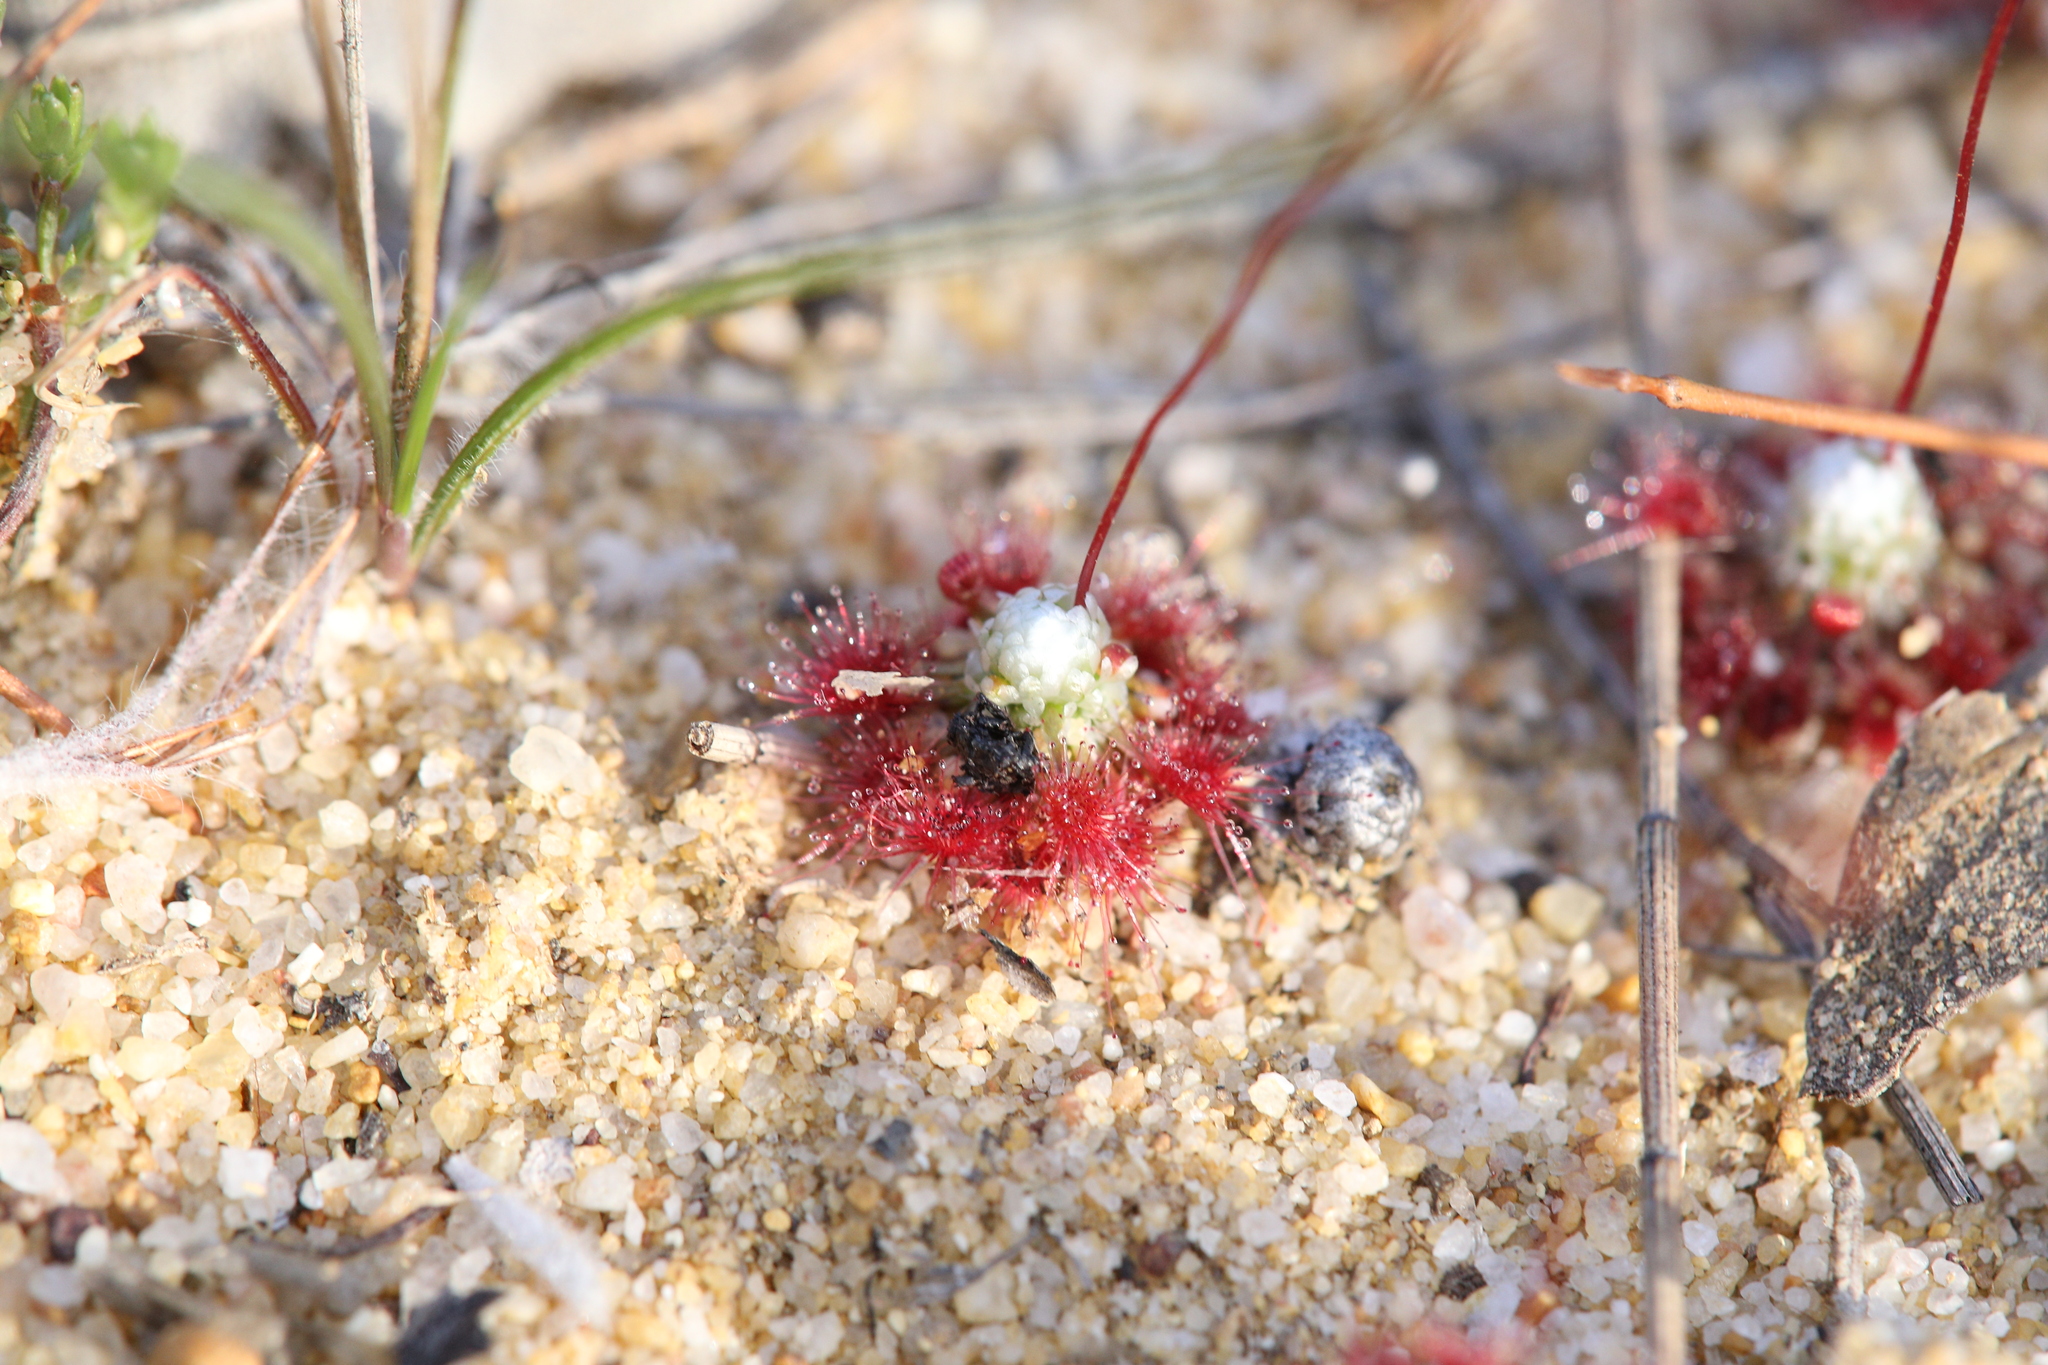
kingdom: Plantae
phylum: Tracheophyta
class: Magnoliopsida
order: Caryophyllales
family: Droseraceae
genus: Drosera
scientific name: Drosera pycnoblasta
